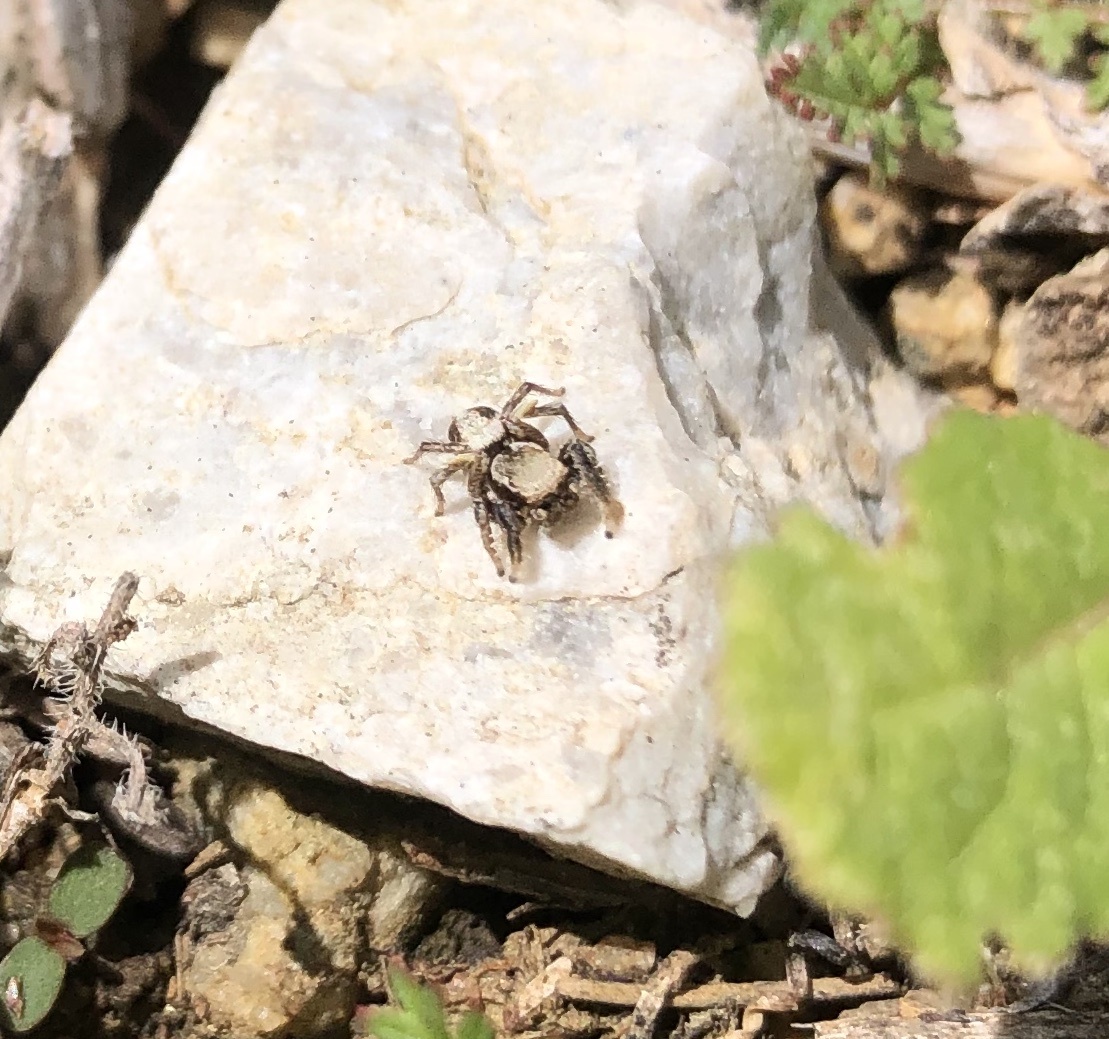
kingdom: Animalia
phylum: Arthropoda
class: Arachnida
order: Araneae
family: Salticidae
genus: Habronattus
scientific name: Habronattus californicus
